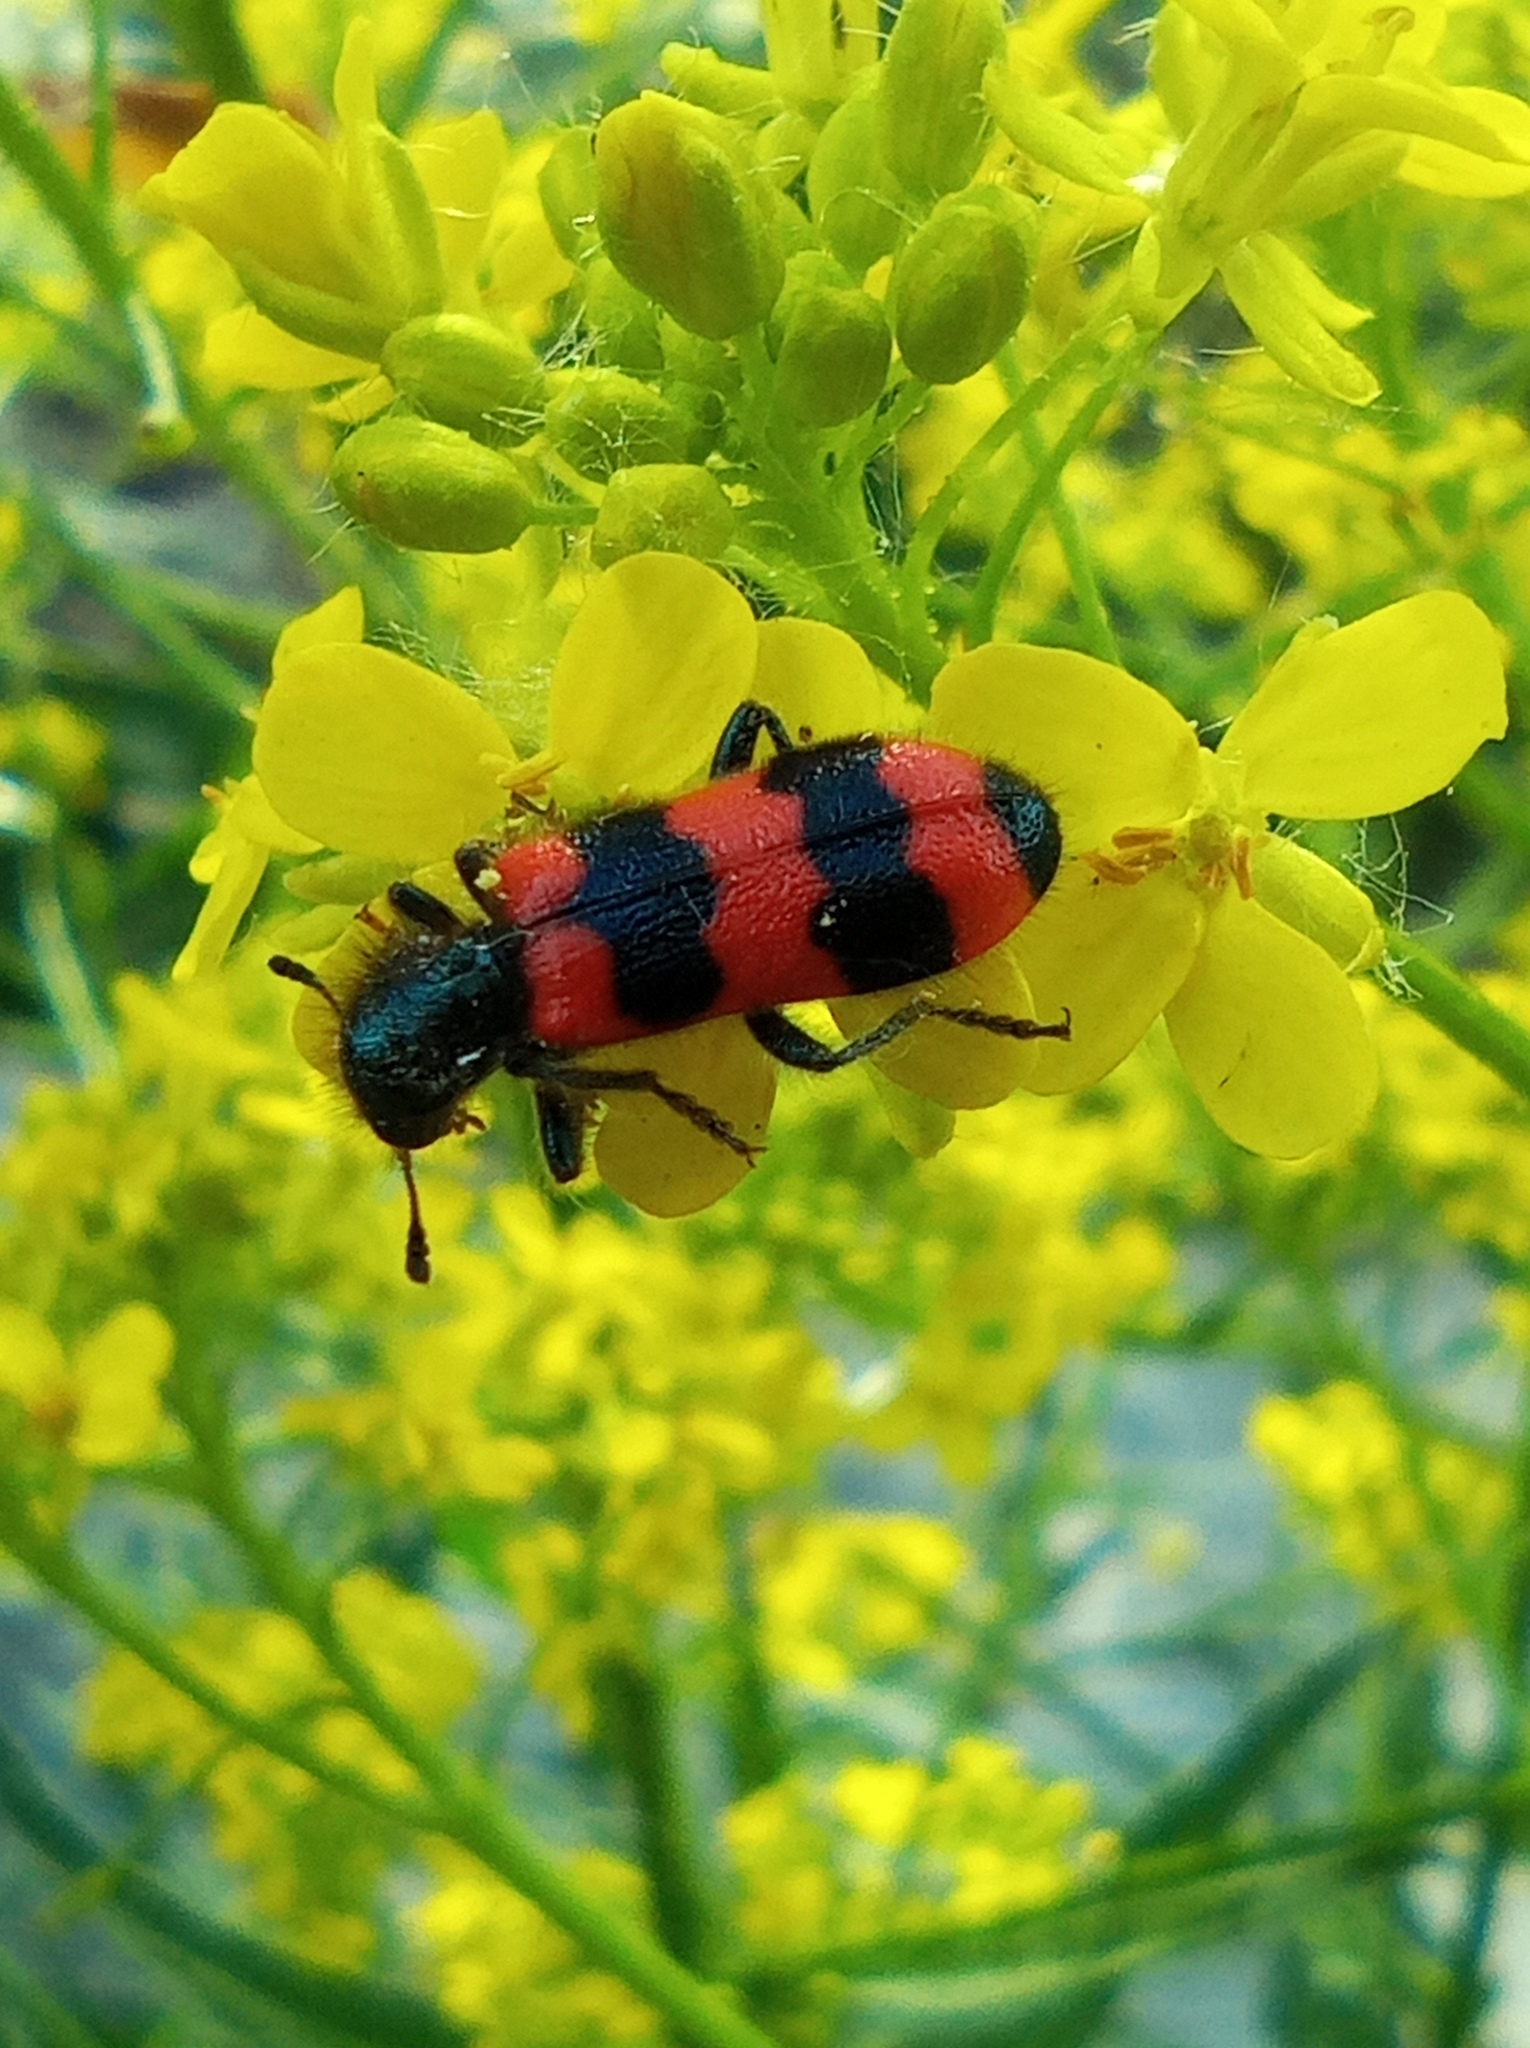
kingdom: Animalia
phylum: Arthropoda
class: Insecta
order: Coleoptera
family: Cleridae
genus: Trichodes
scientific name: Trichodes apiarius
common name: Bee-eating beetle
